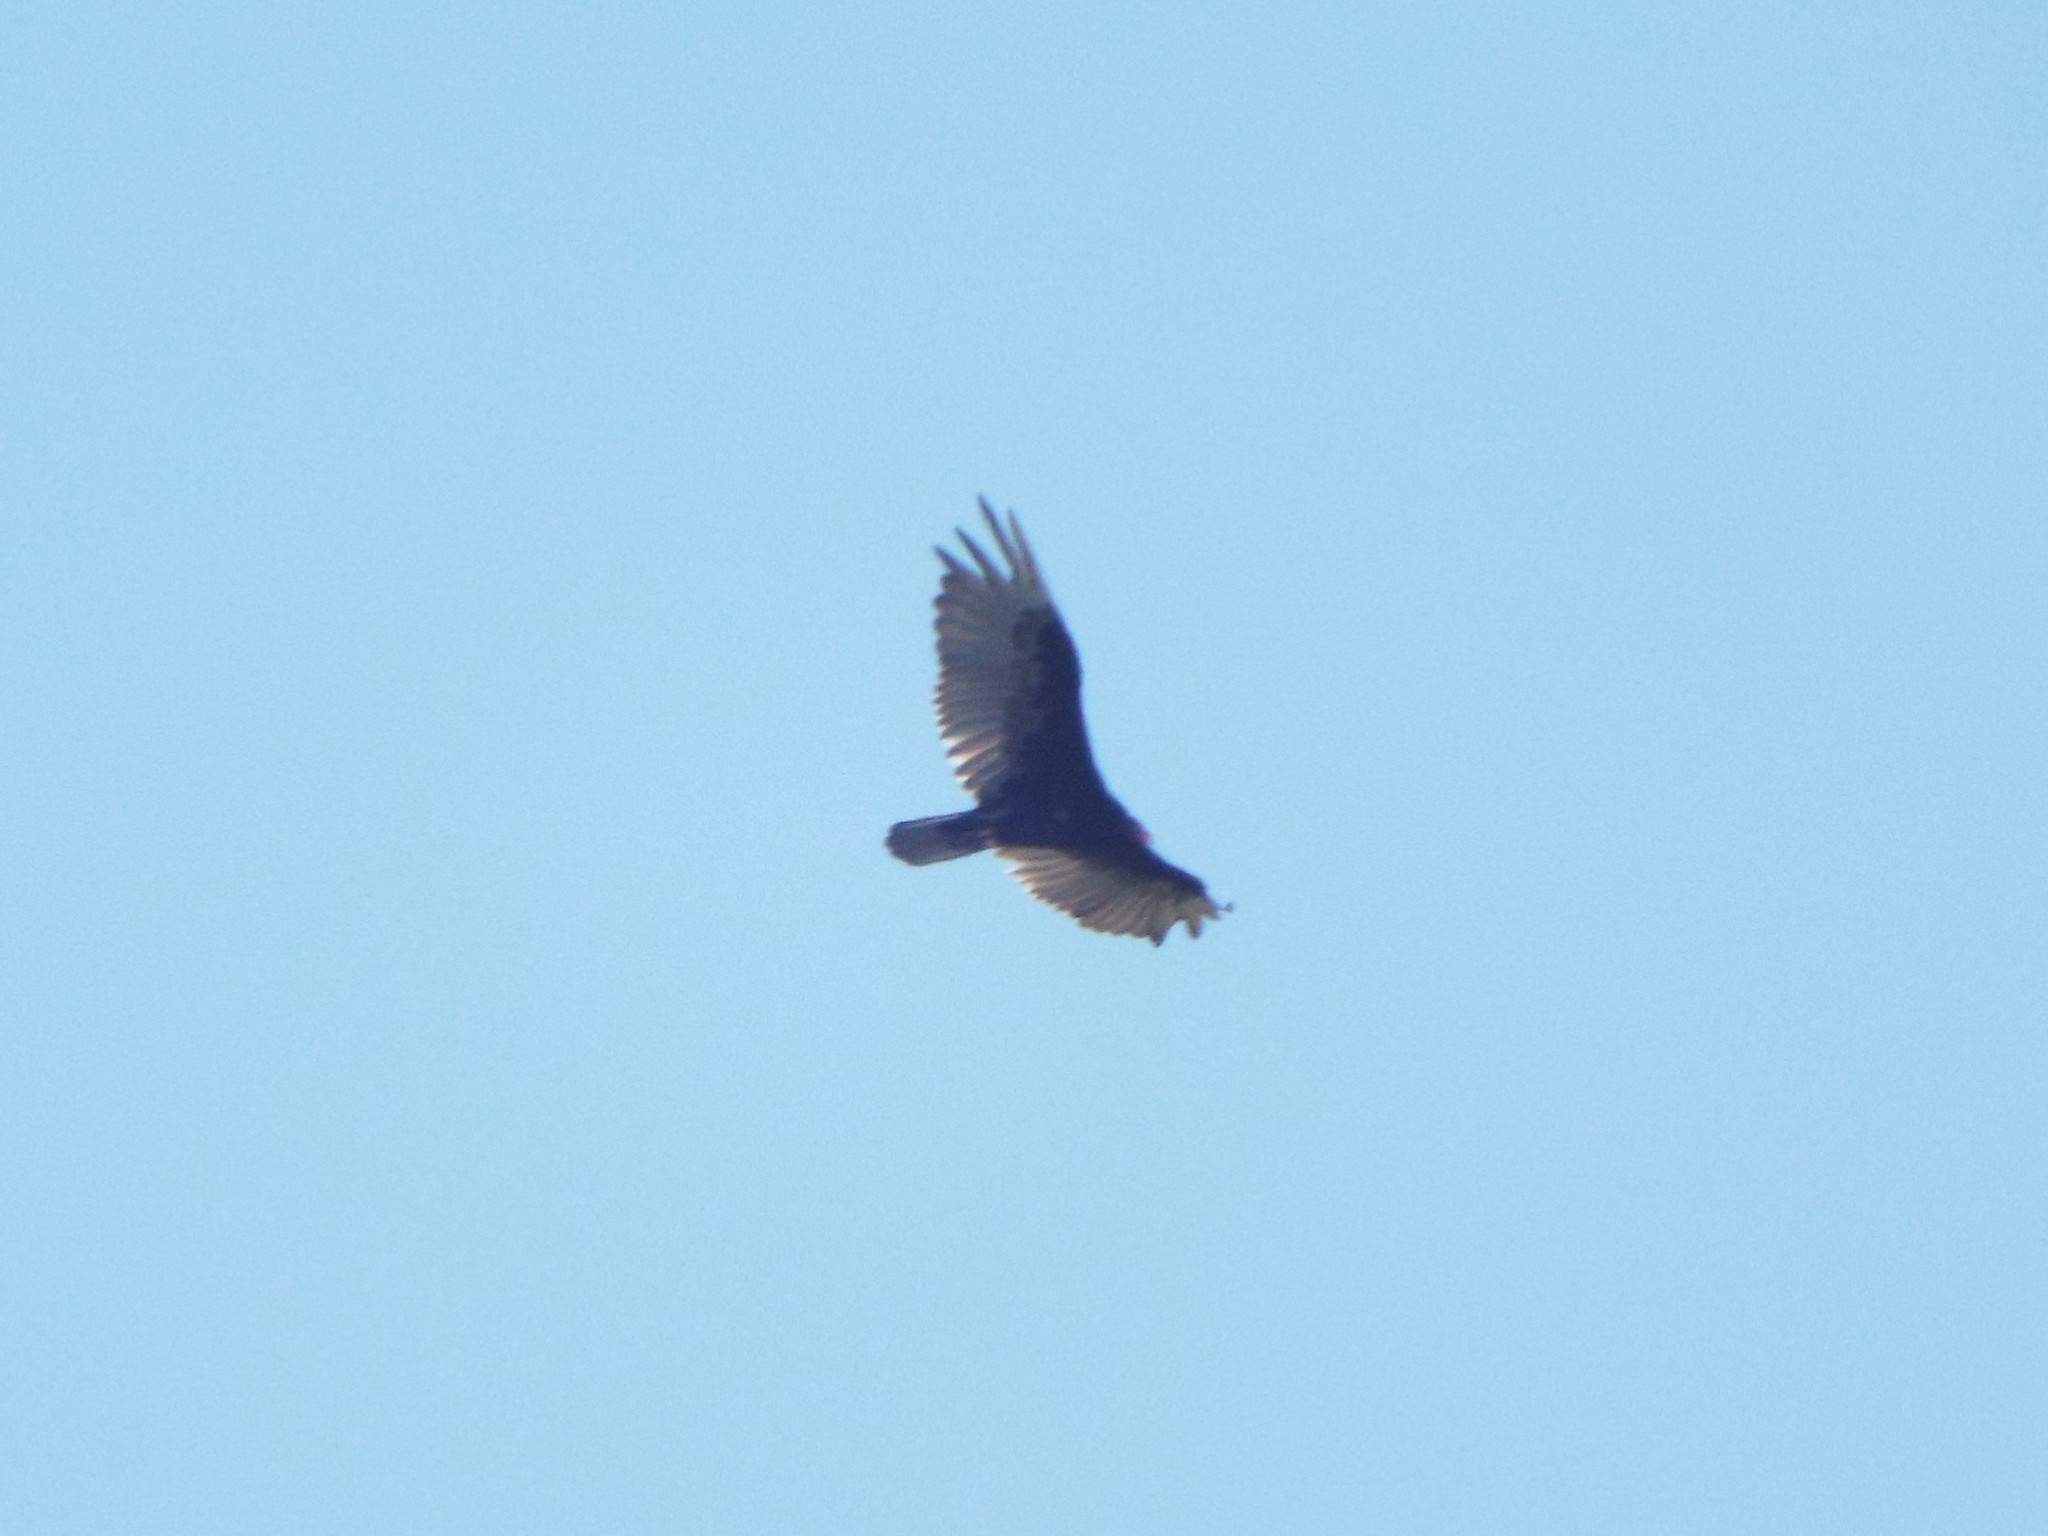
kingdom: Animalia
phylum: Chordata
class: Aves
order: Accipitriformes
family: Cathartidae
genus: Cathartes
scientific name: Cathartes aura
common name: Turkey vulture
